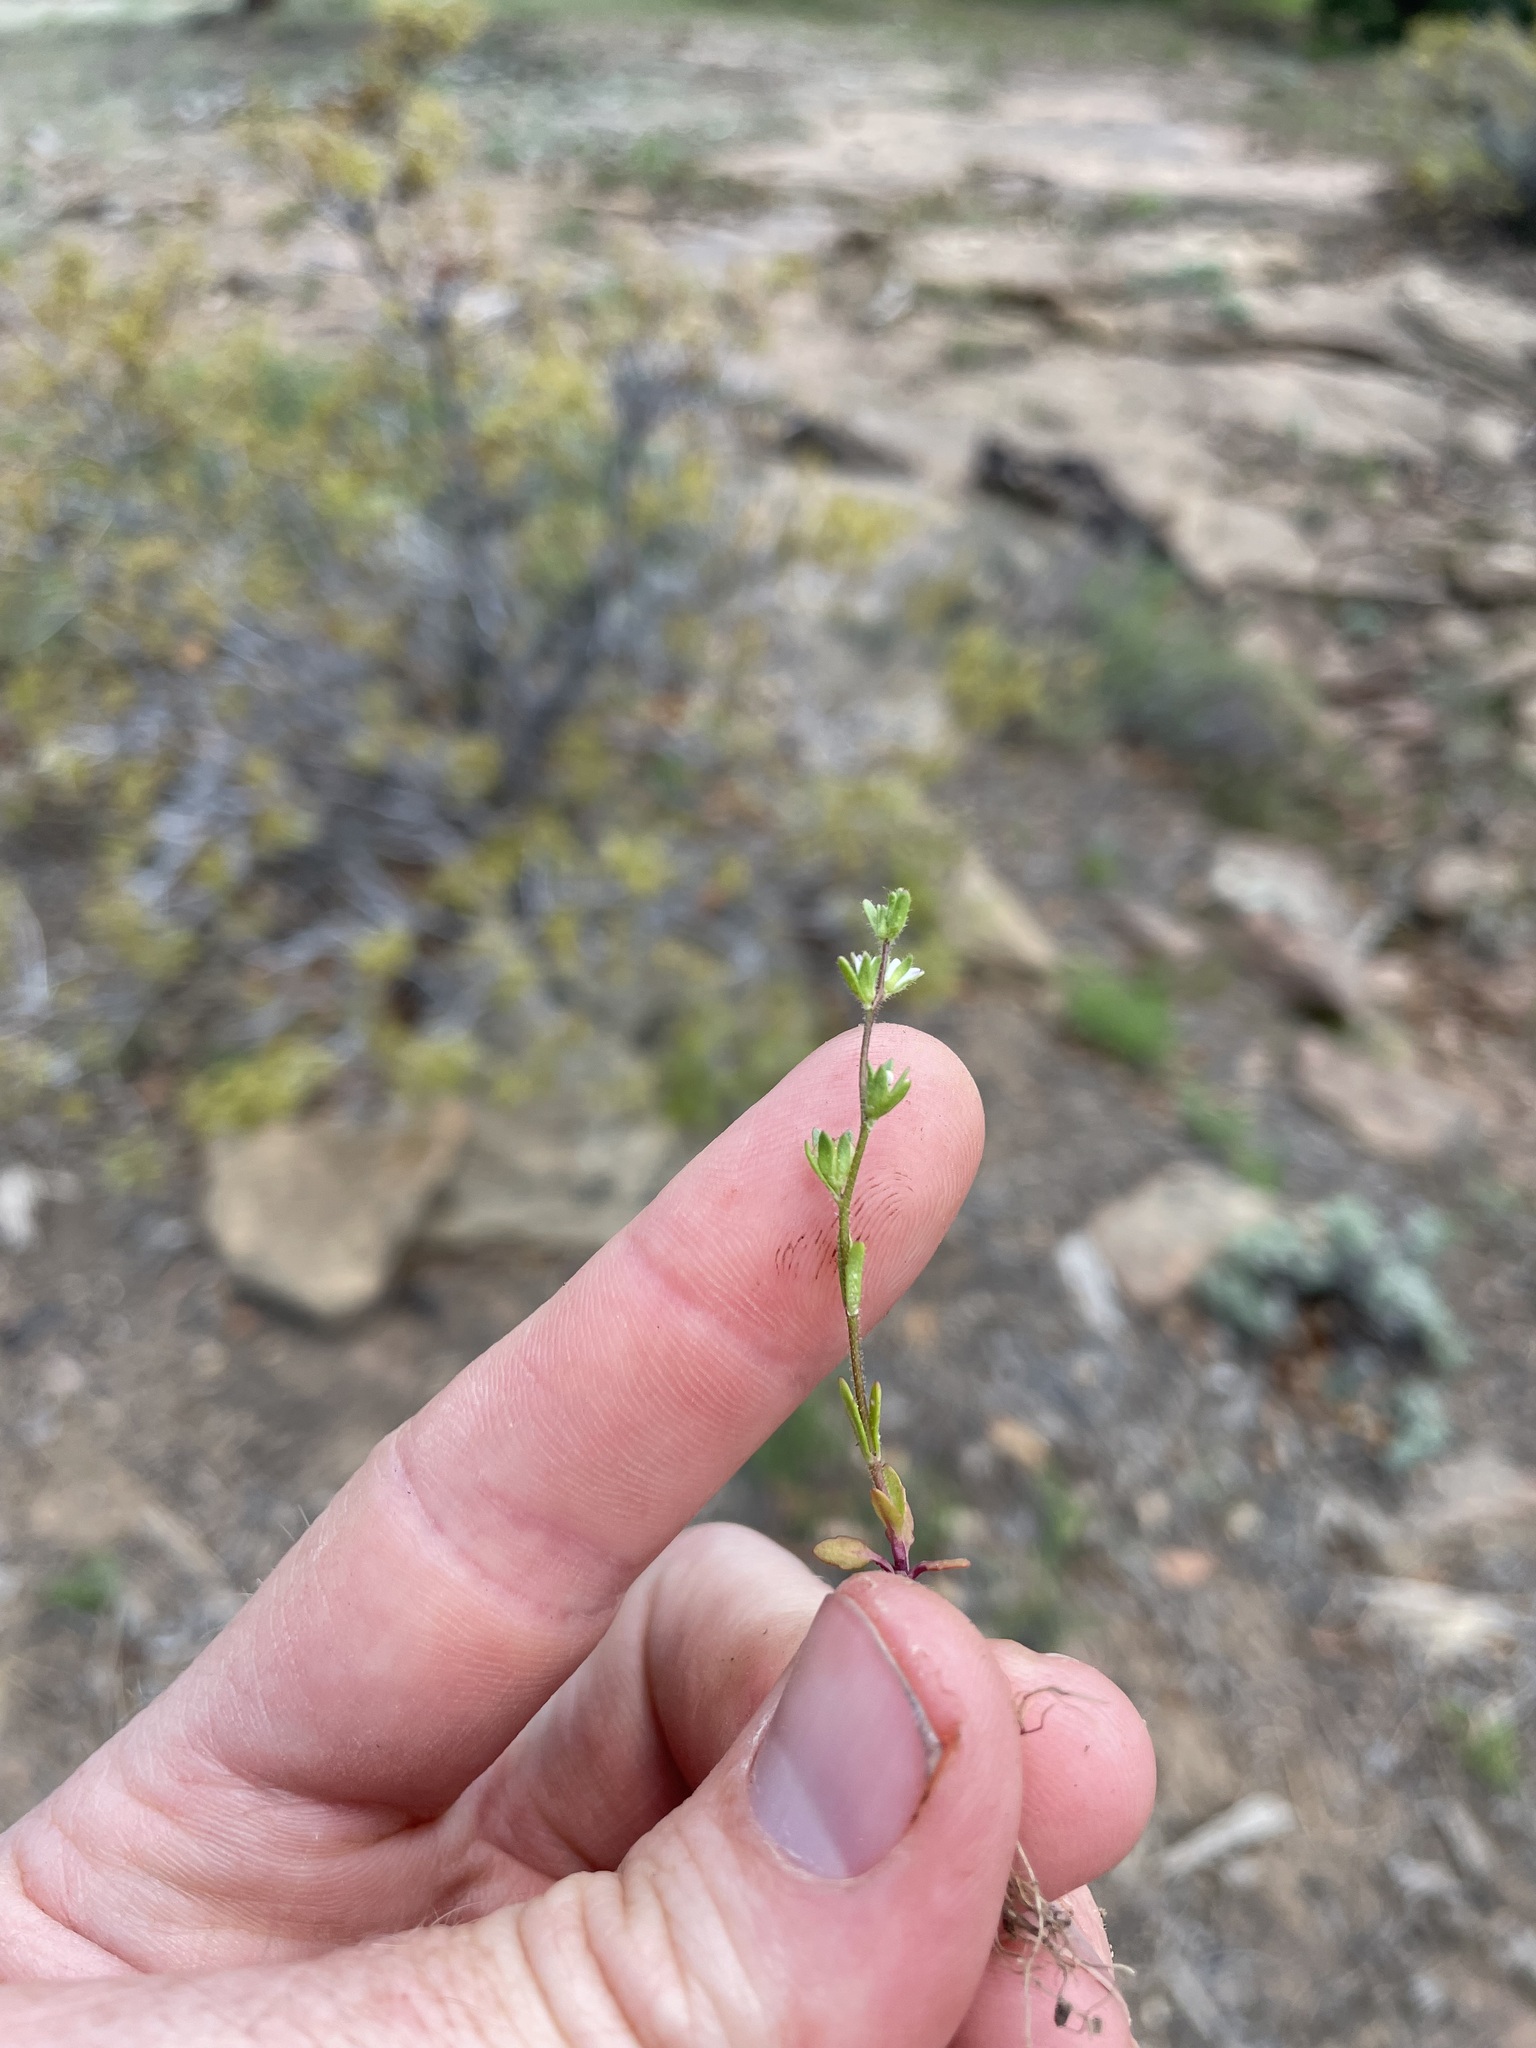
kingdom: Plantae
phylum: Tracheophyta
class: Magnoliopsida
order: Lamiales
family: Plantaginaceae
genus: Veronica
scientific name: Veronica peregrina
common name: Neckweed
